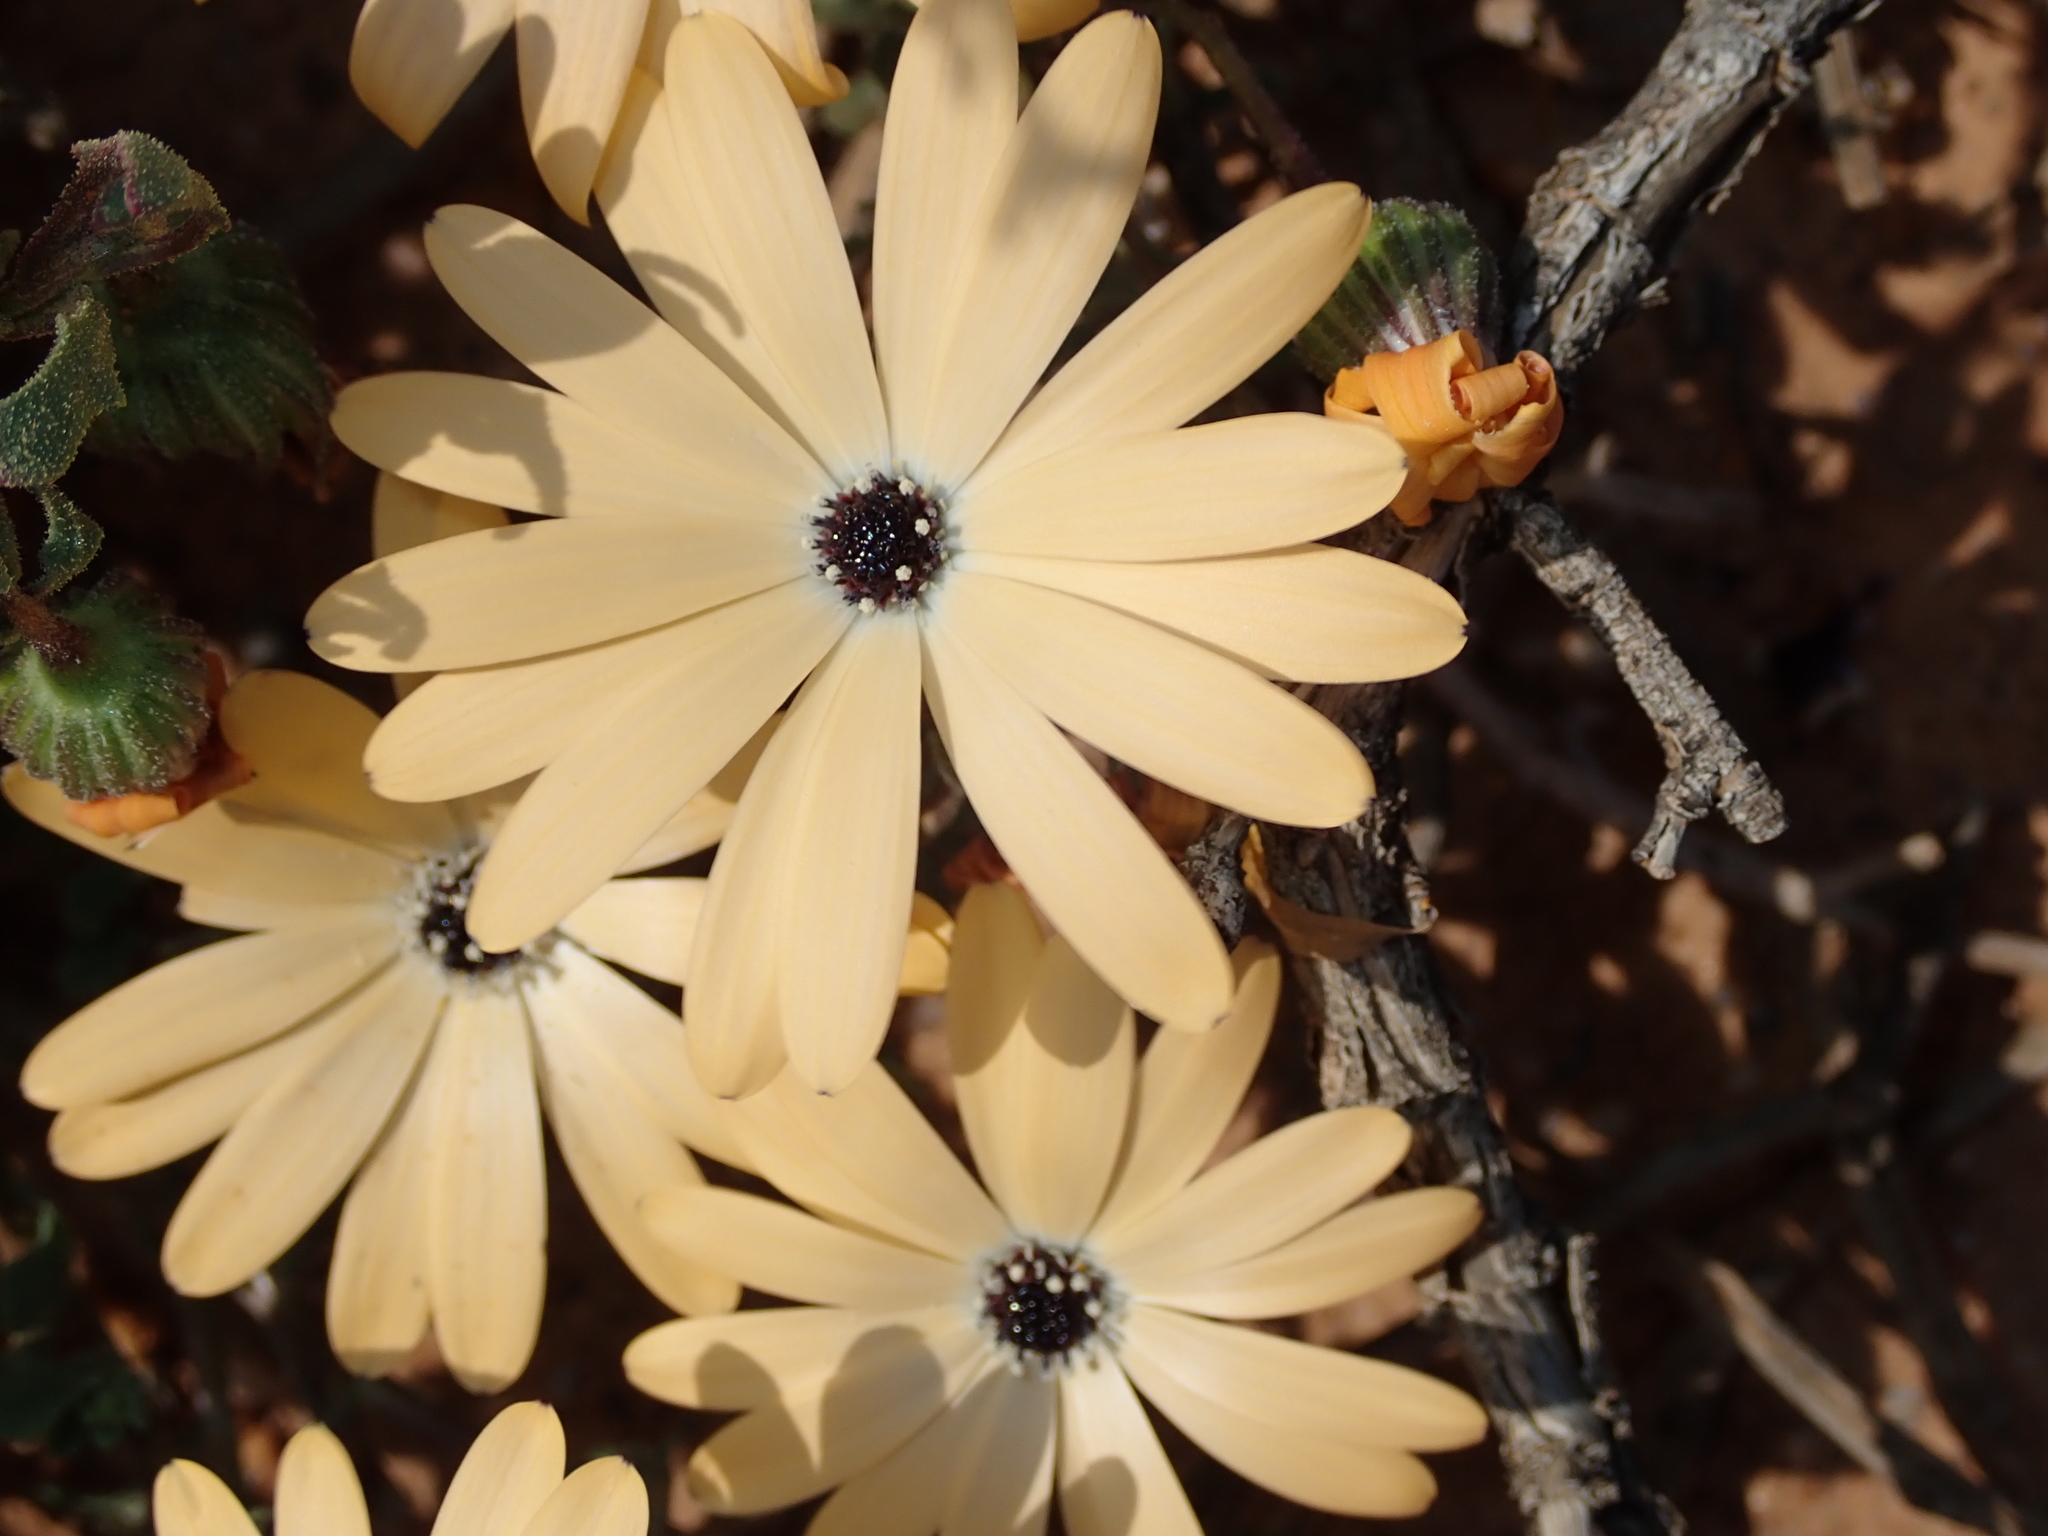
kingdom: Plantae
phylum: Tracheophyta
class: Magnoliopsida
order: Asterales
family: Asteraceae
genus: Dimorphotheca
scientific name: Dimorphotheca sinuata
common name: Glandular cape marigold
